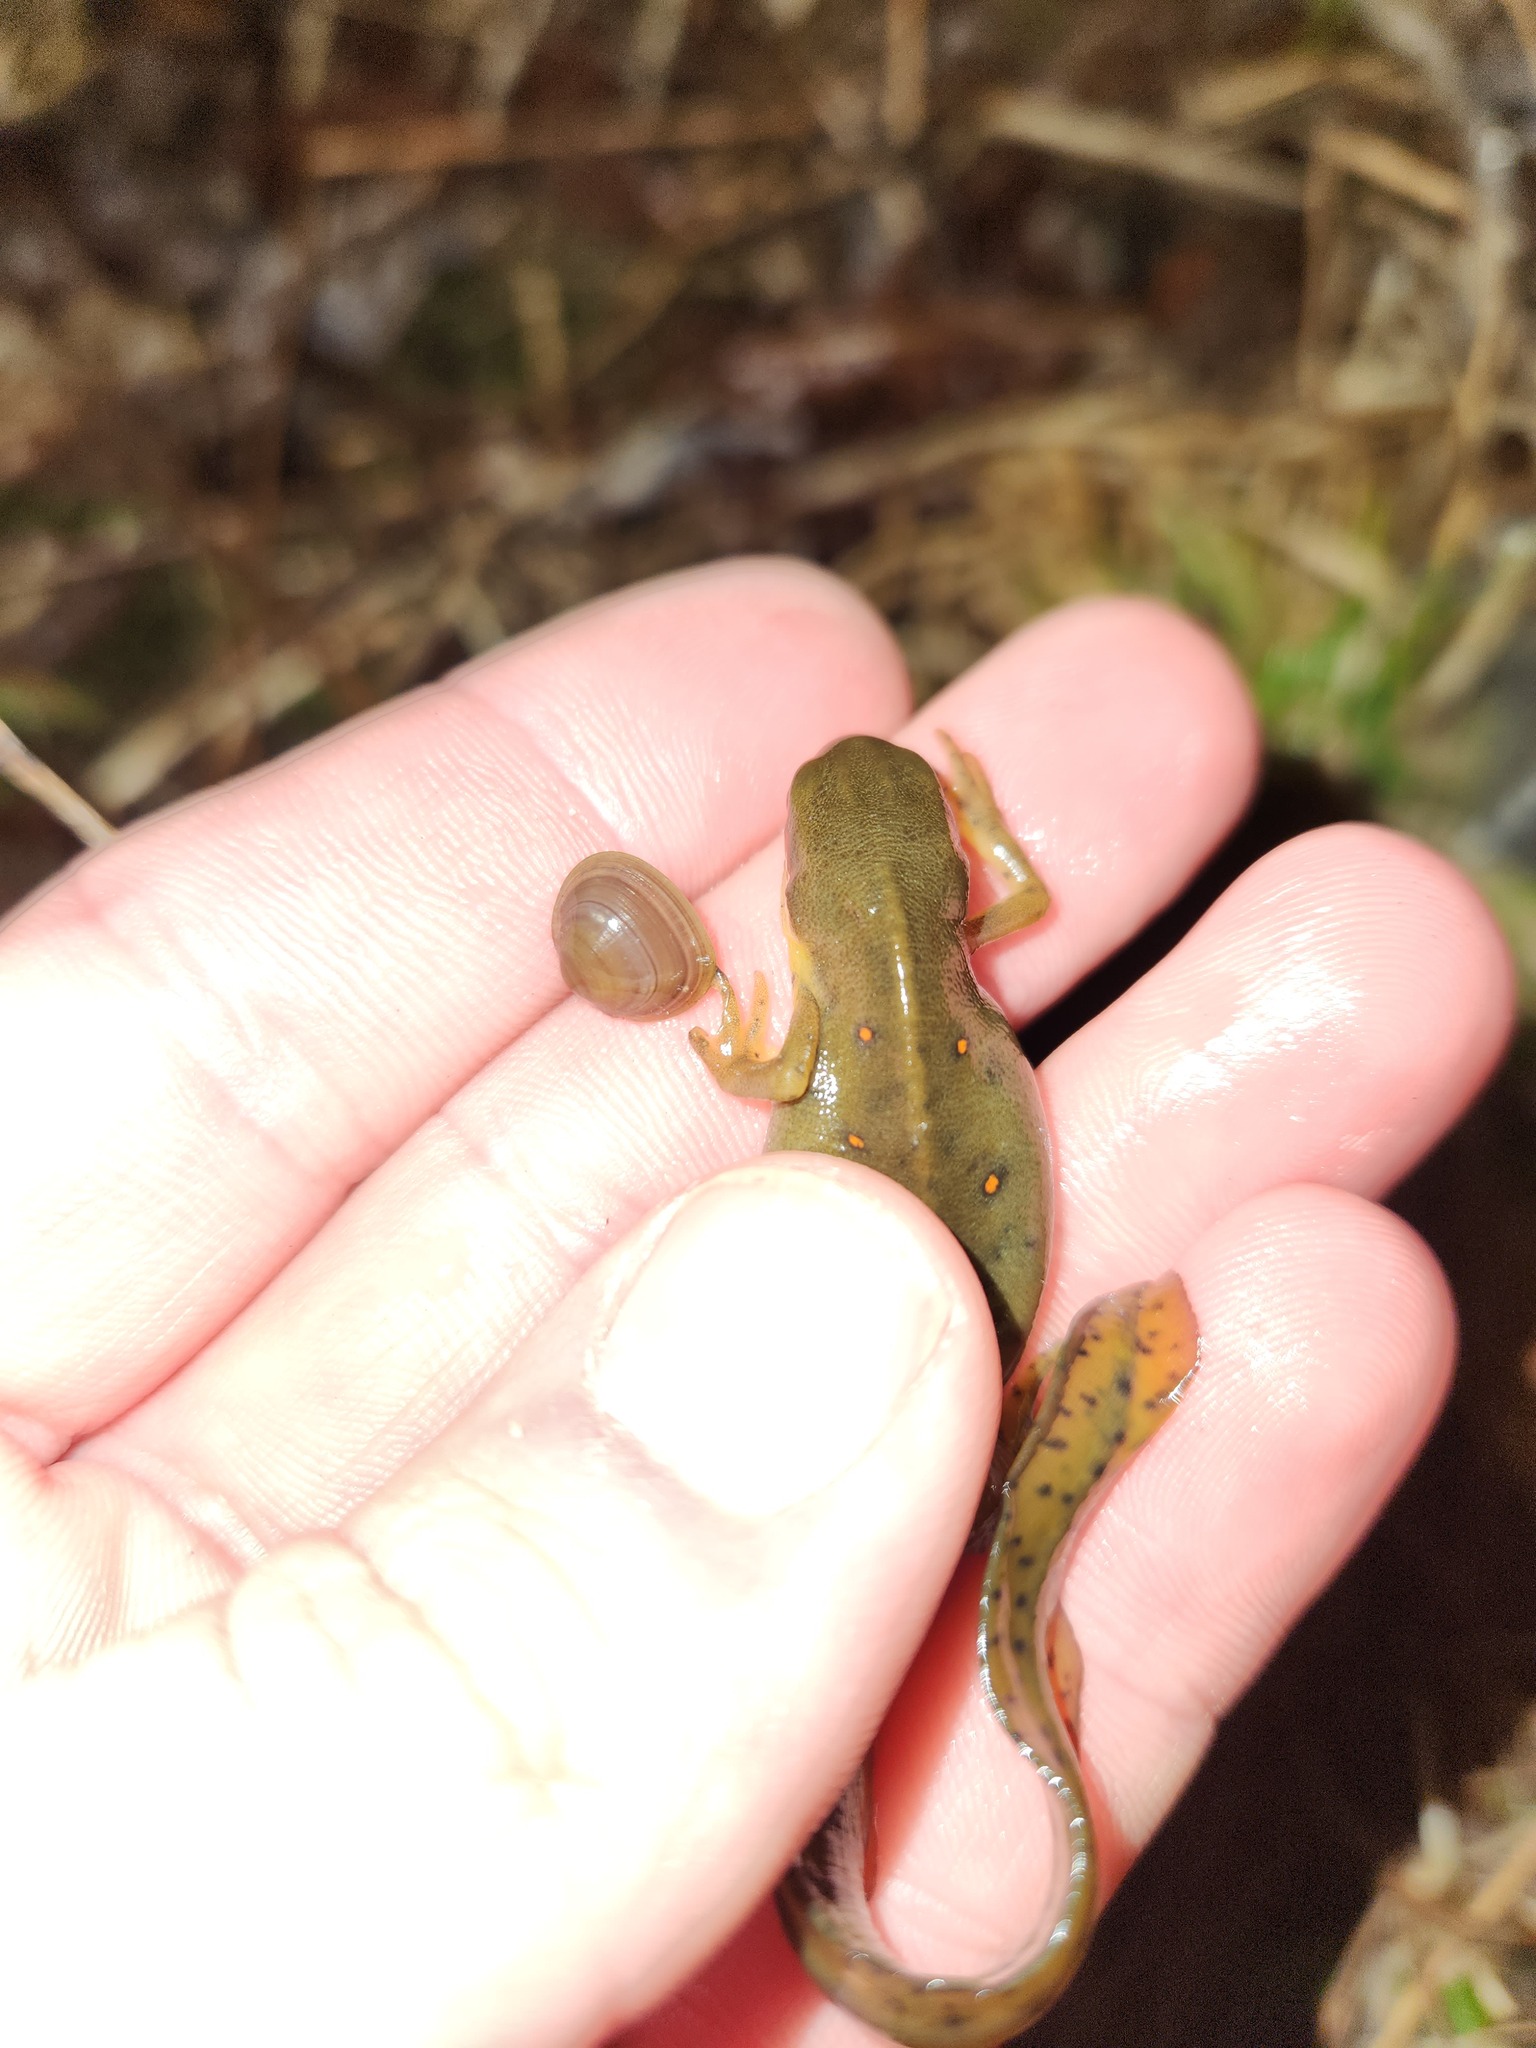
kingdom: Animalia
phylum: Mollusca
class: Bivalvia
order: Sphaeriida
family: Sphaeriidae
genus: Sphaerium
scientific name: Sphaerium rhomboideum
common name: Rhomboid fingernailclam
